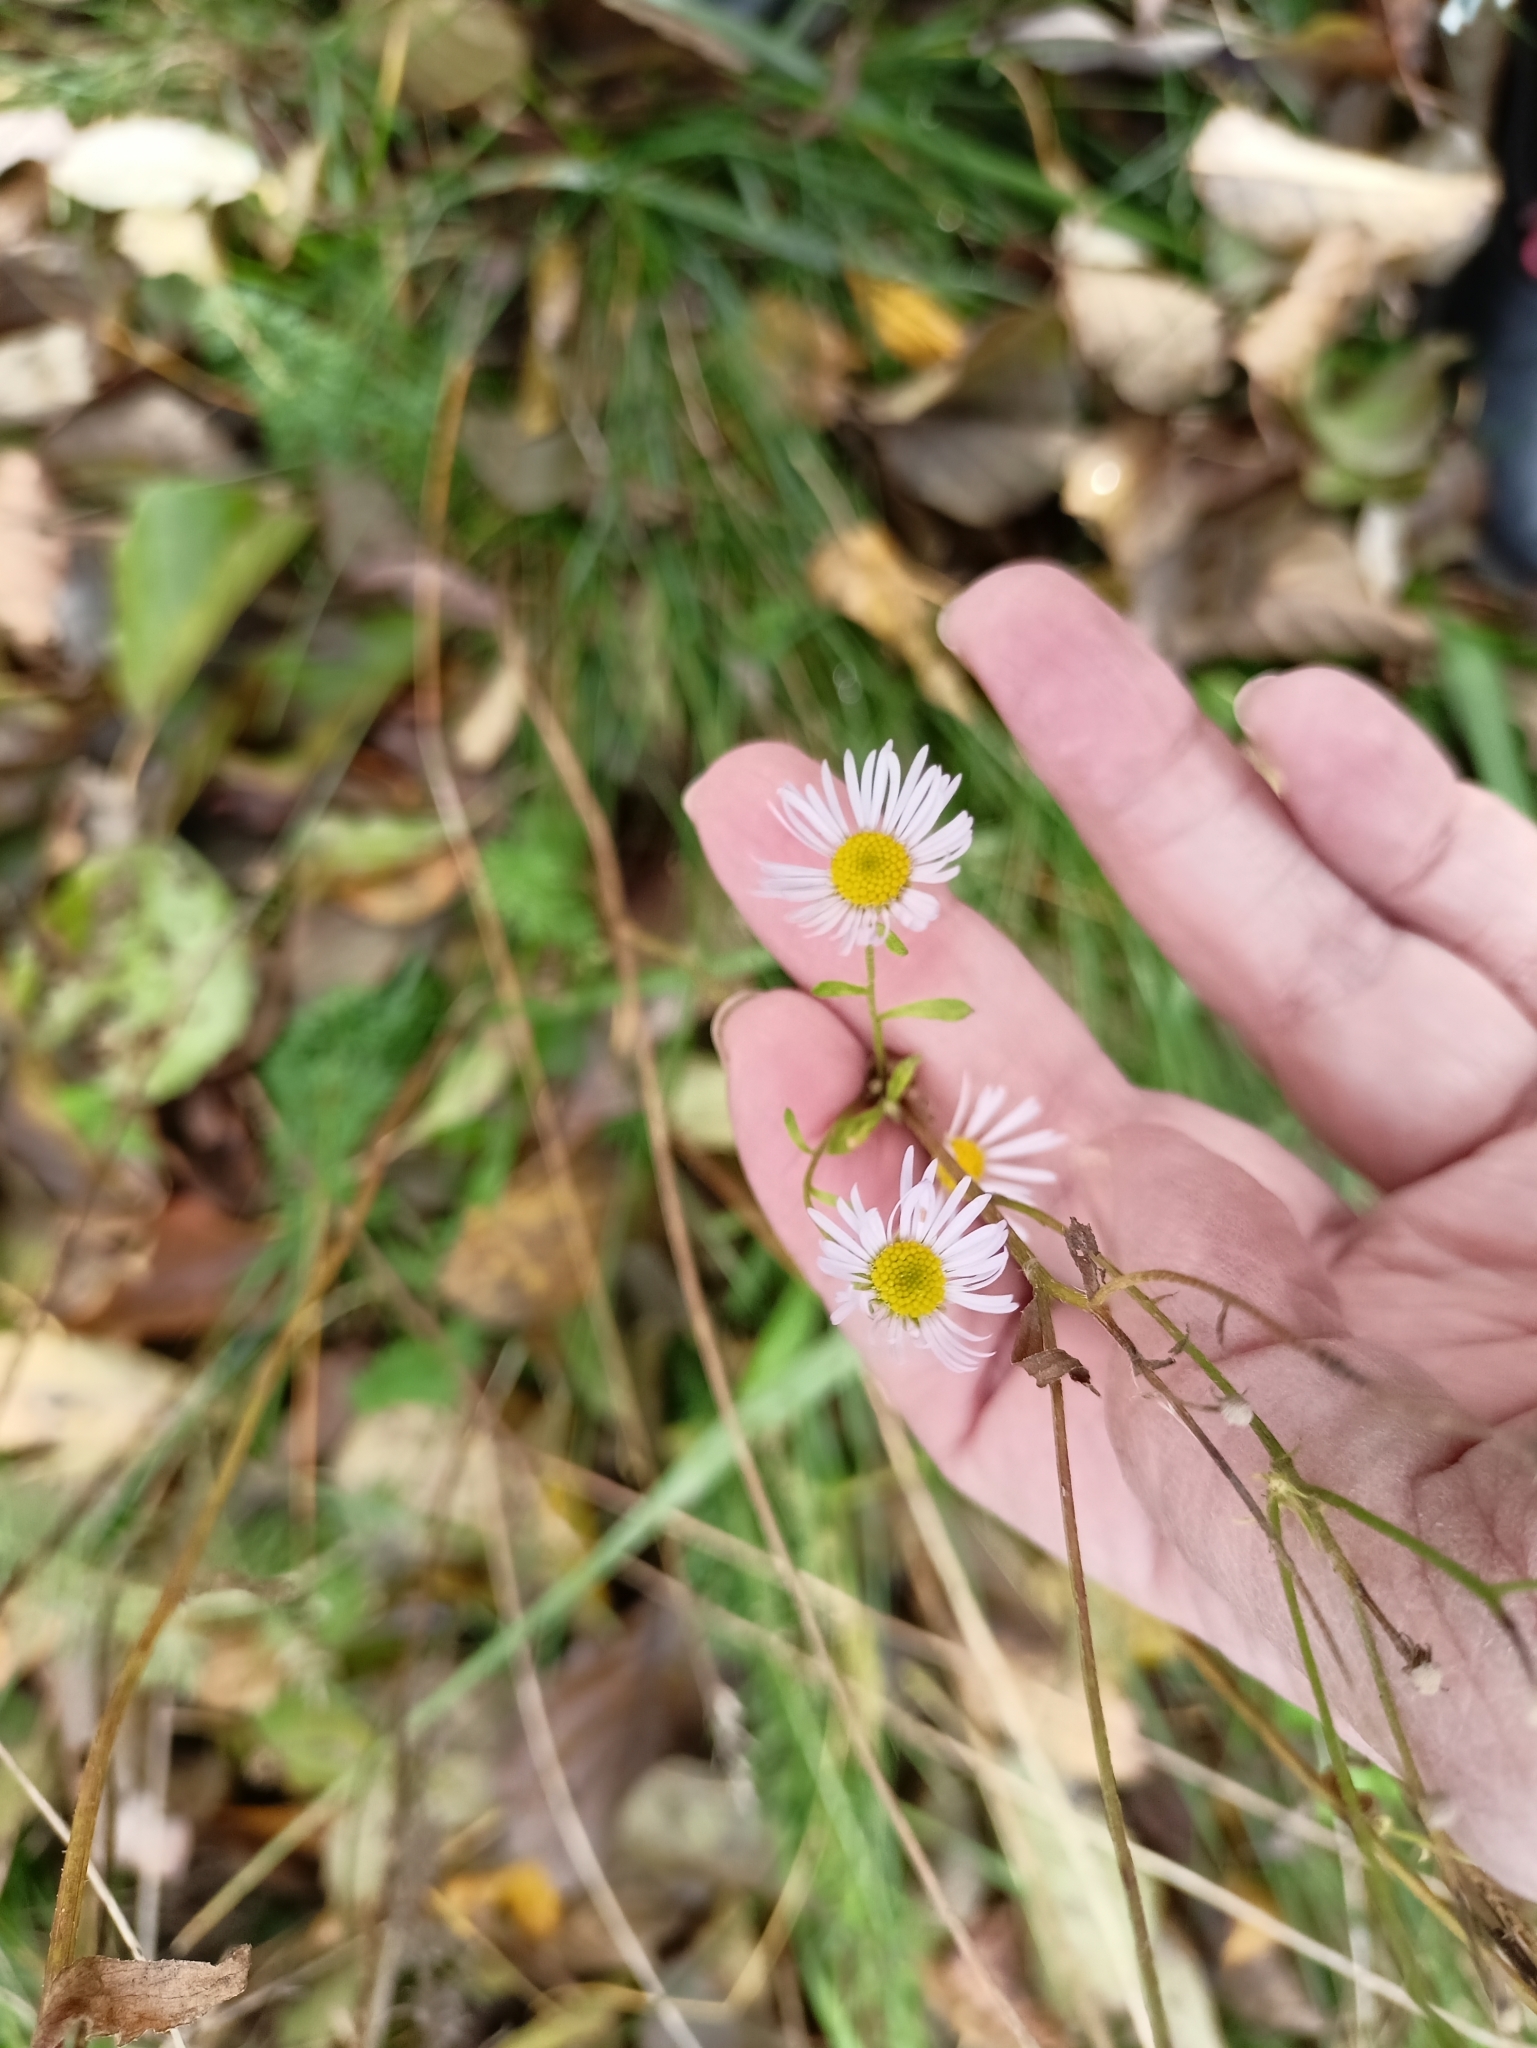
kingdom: Plantae
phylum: Tracheophyta
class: Magnoliopsida
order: Asterales
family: Asteraceae
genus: Erigeron
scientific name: Erigeron annuus
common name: Tall fleabane
